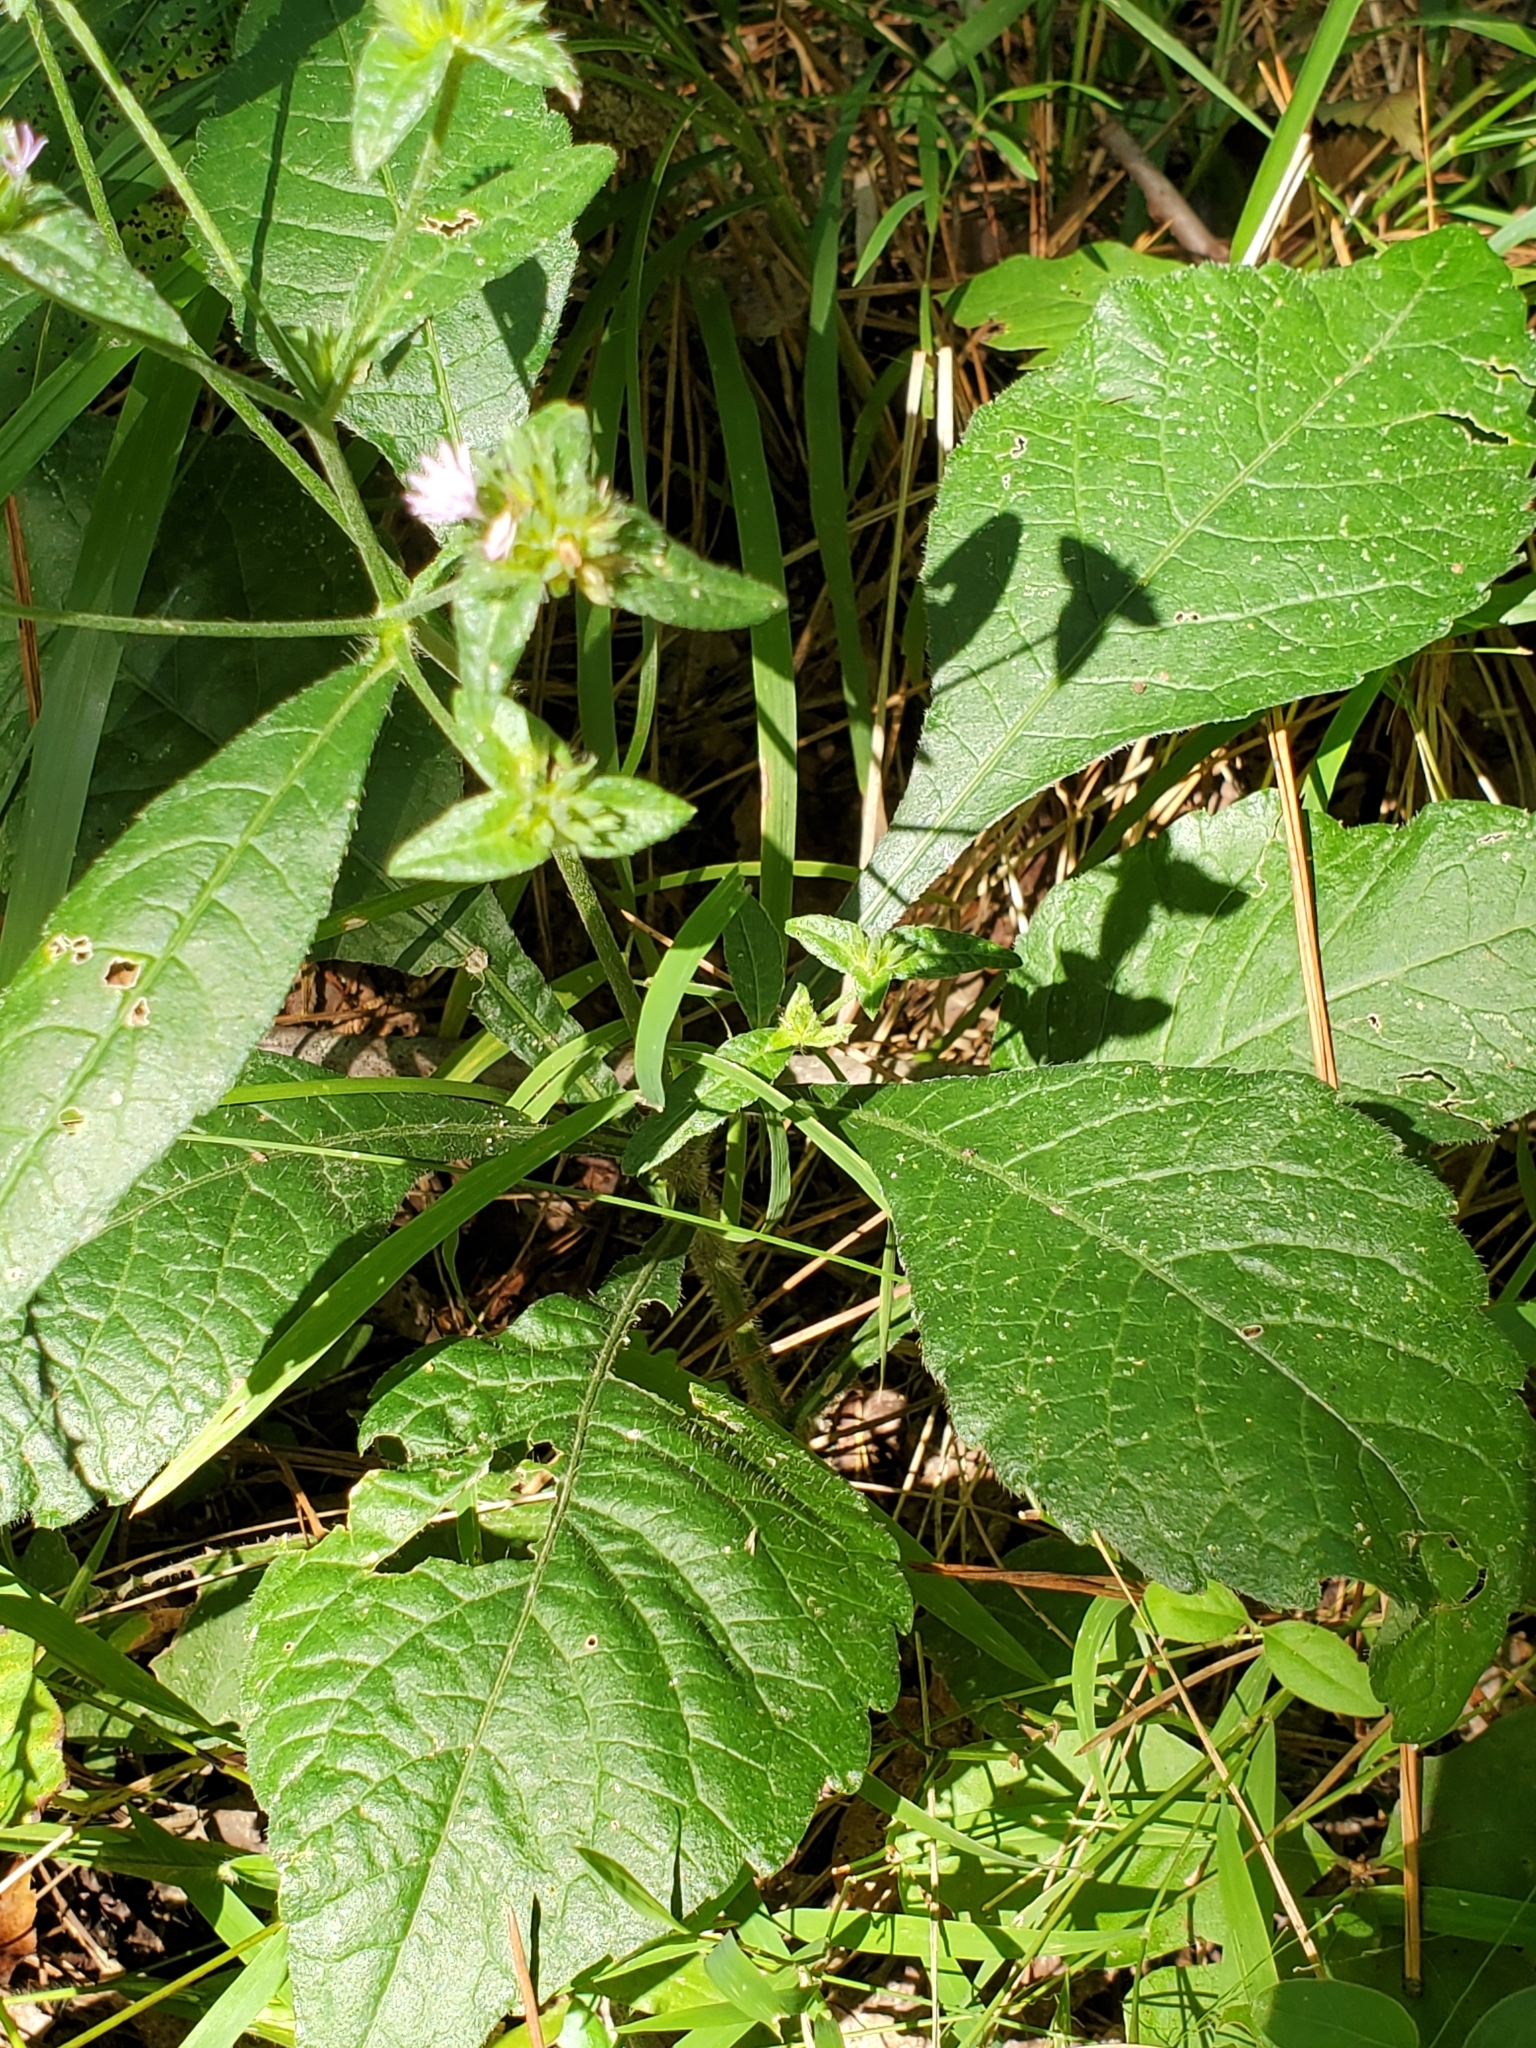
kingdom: Plantae
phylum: Tracheophyta
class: Magnoliopsida
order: Asterales
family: Asteraceae
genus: Elephantopus
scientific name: Elephantopus carolinianus
